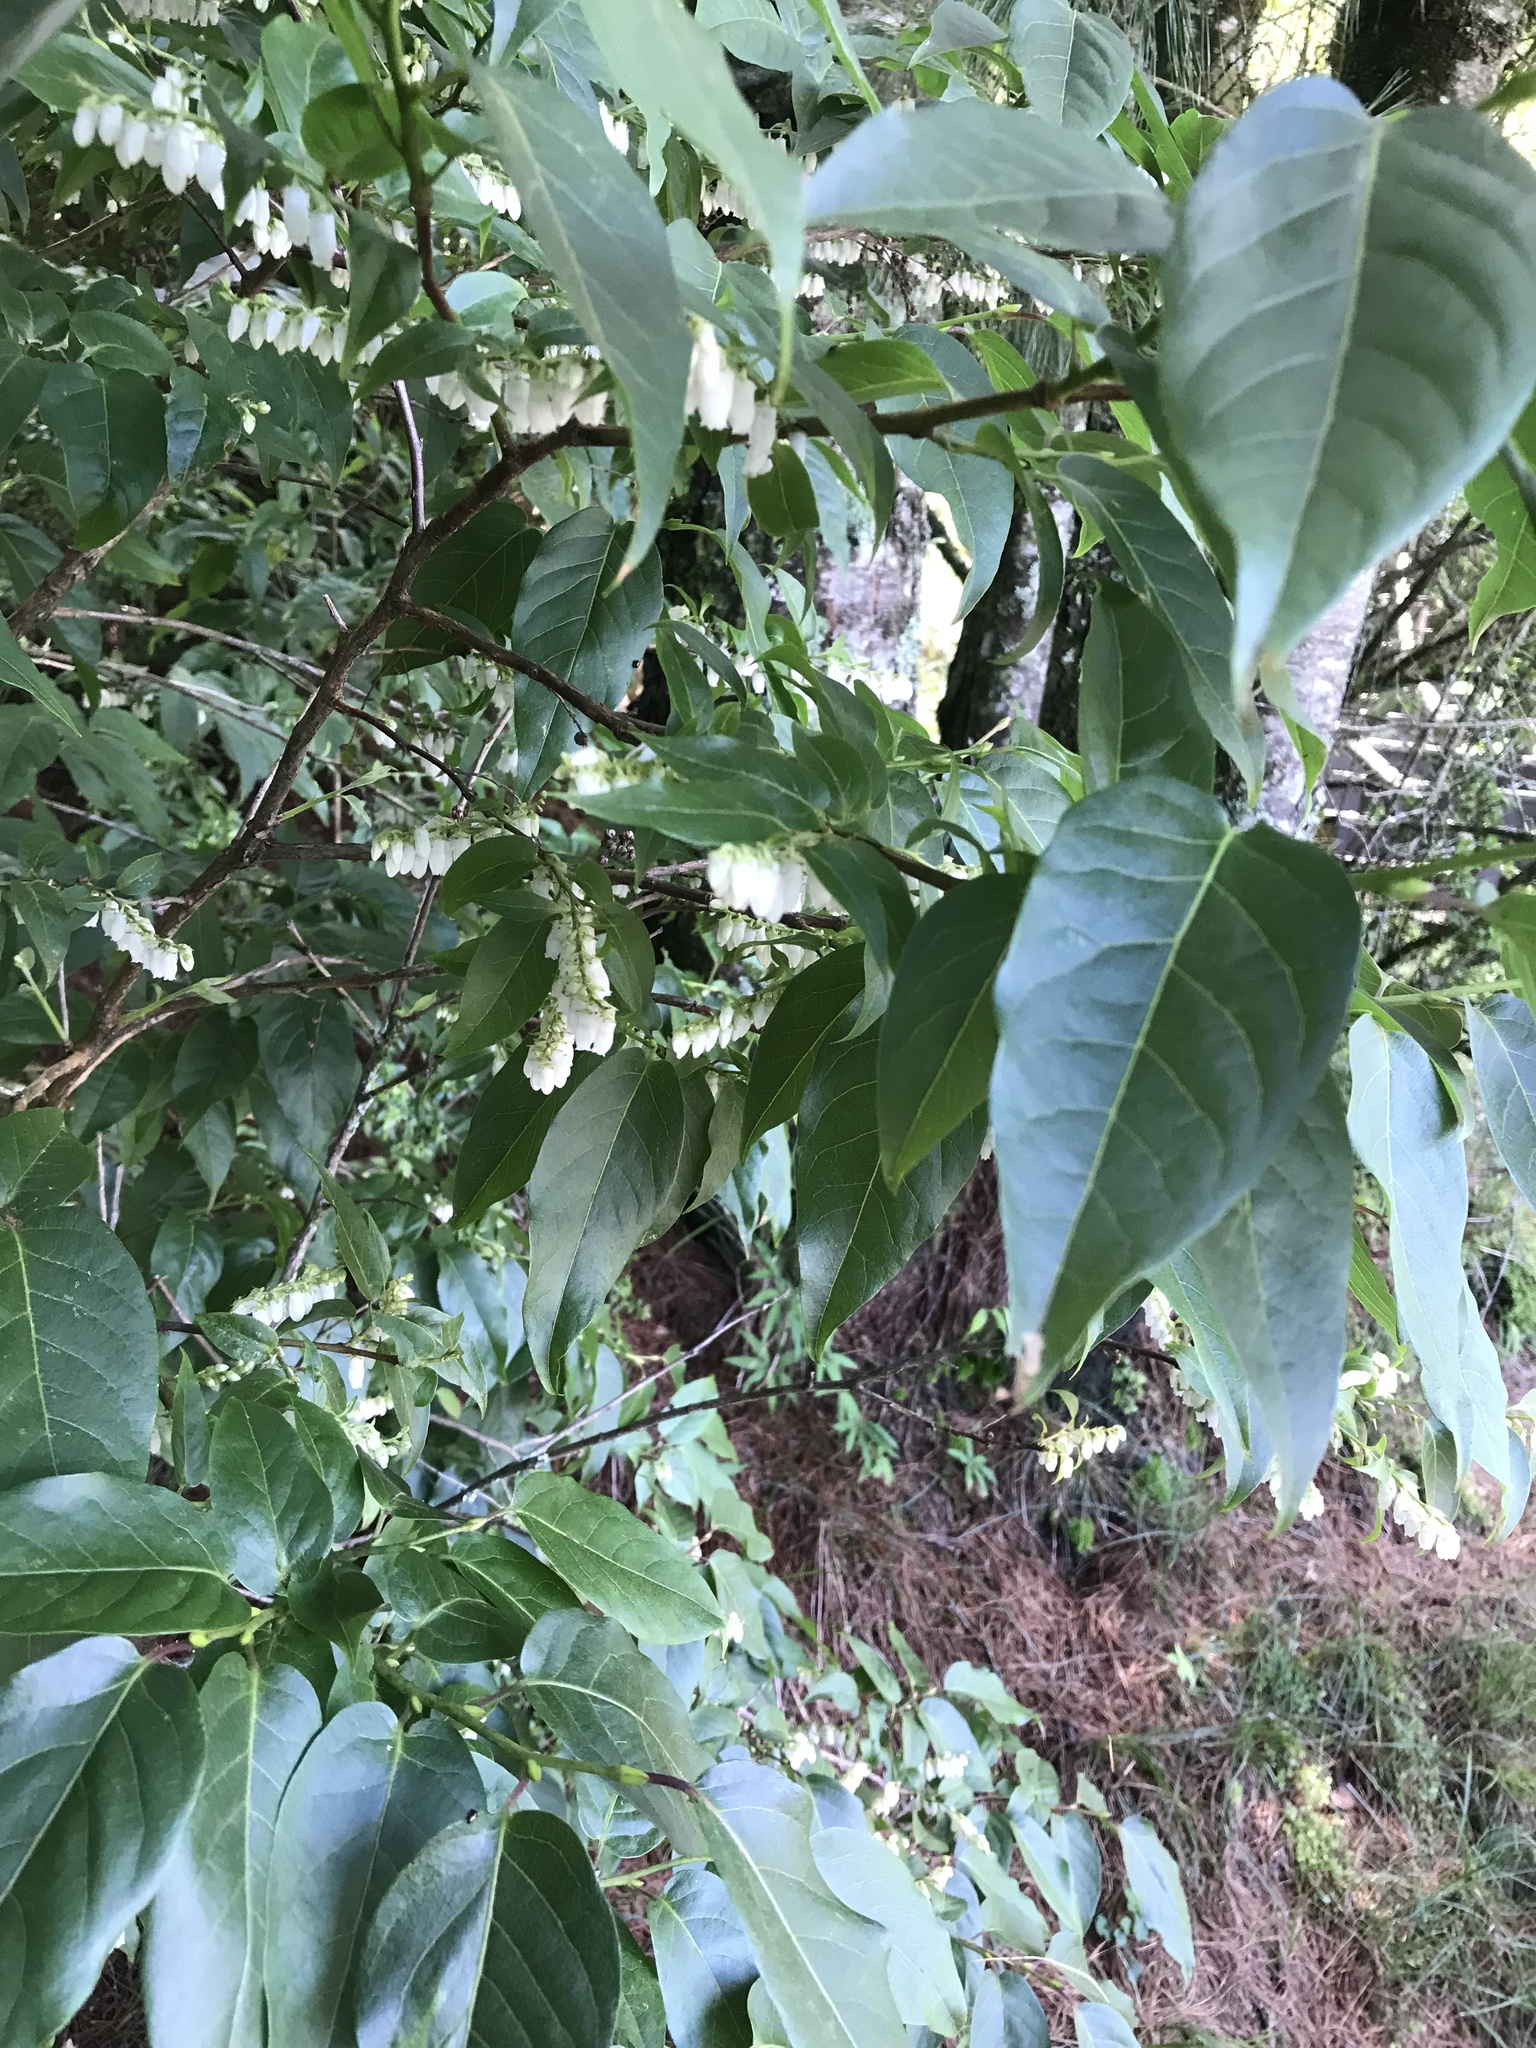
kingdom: Plantae
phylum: Tracheophyta
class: Magnoliopsida
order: Ericales
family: Ericaceae
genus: Lyonia
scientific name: Lyonia ovalifolia
